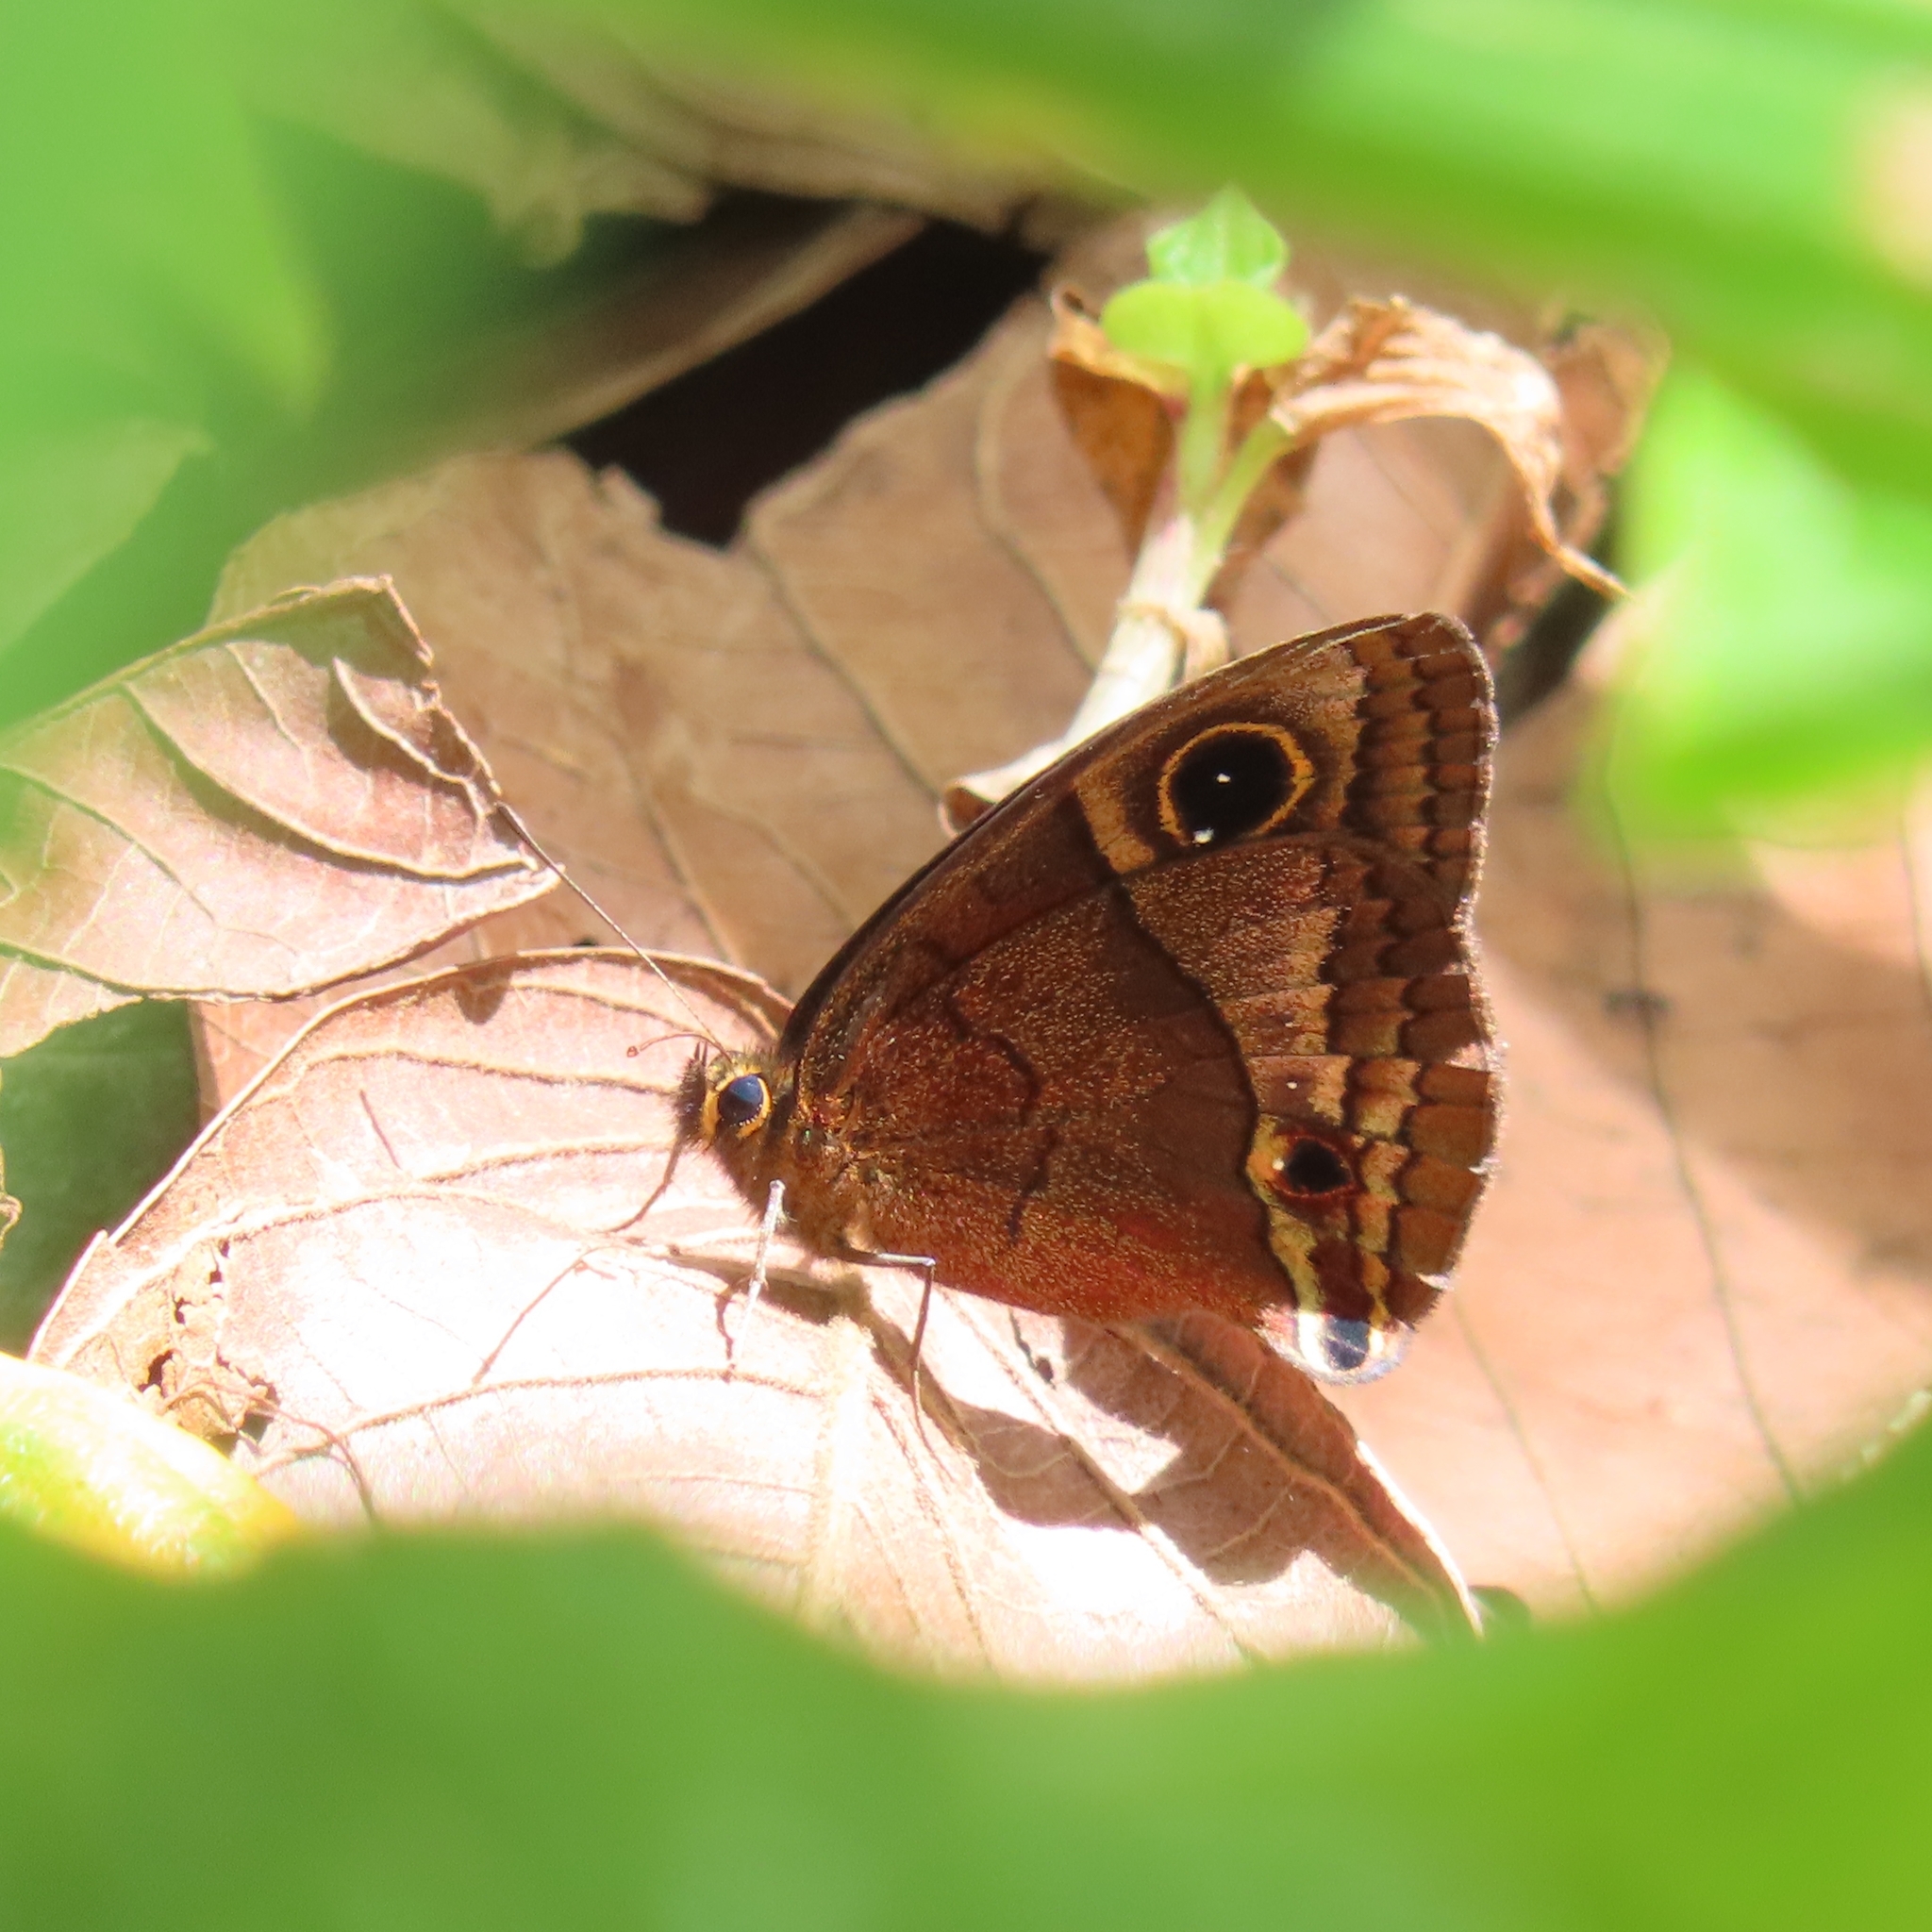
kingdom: Animalia
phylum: Arthropoda
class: Insecta
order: Lepidoptera
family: Nymphalidae
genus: Calisto
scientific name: Calisto nubila
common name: Puerto rican calisto
